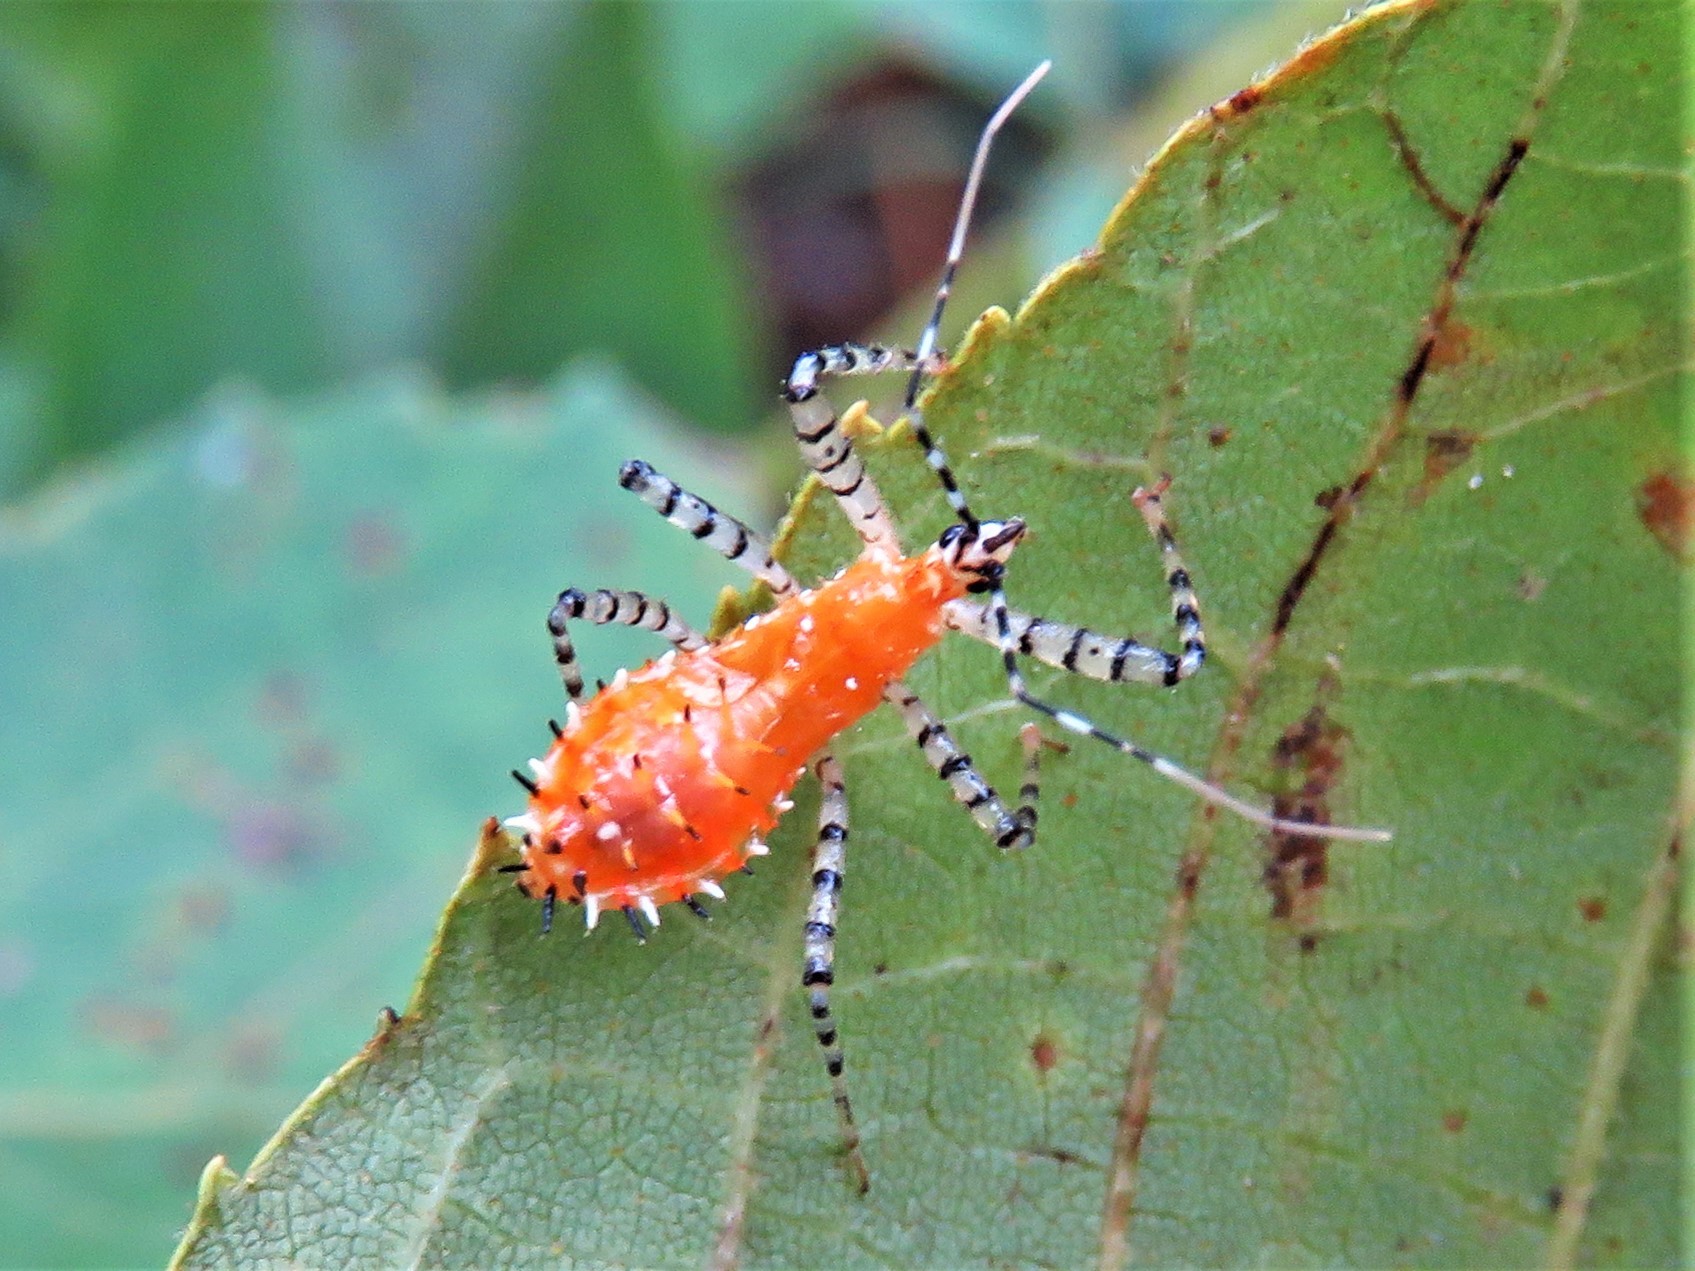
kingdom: Animalia
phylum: Arthropoda
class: Insecta
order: Hemiptera
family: Reduviidae
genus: Pselliopus
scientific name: Pselliopus cinctus
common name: Ringed assassin bug
